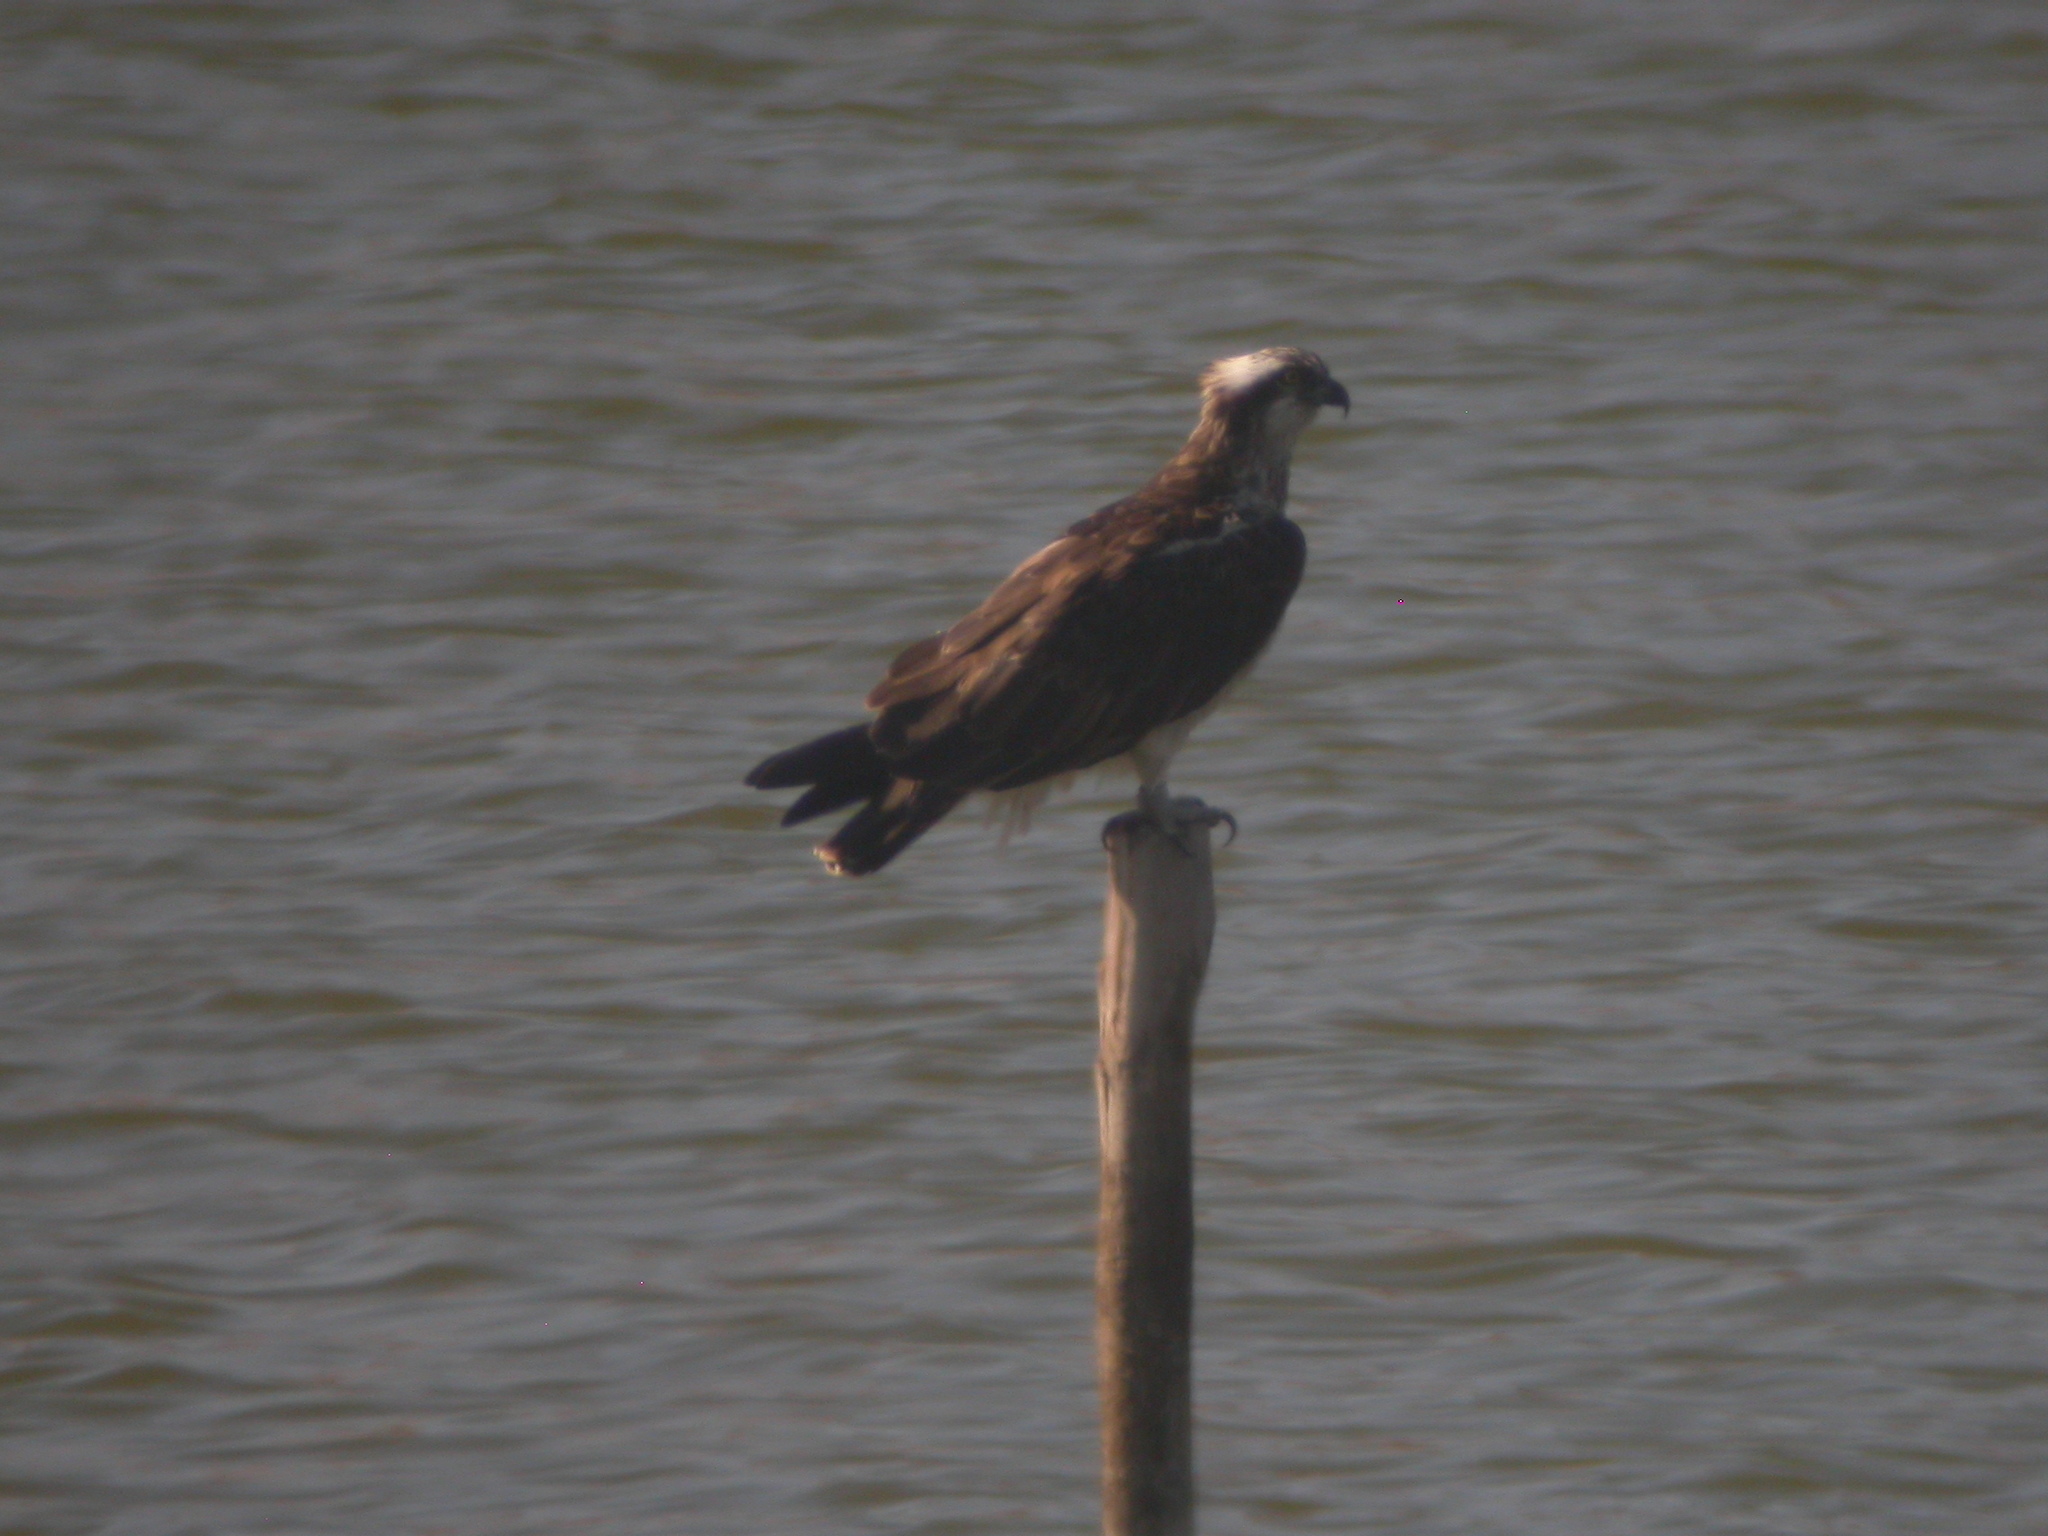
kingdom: Animalia
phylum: Chordata
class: Aves
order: Accipitriformes
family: Pandionidae
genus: Pandion
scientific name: Pandion haliaetus
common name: Osprey
